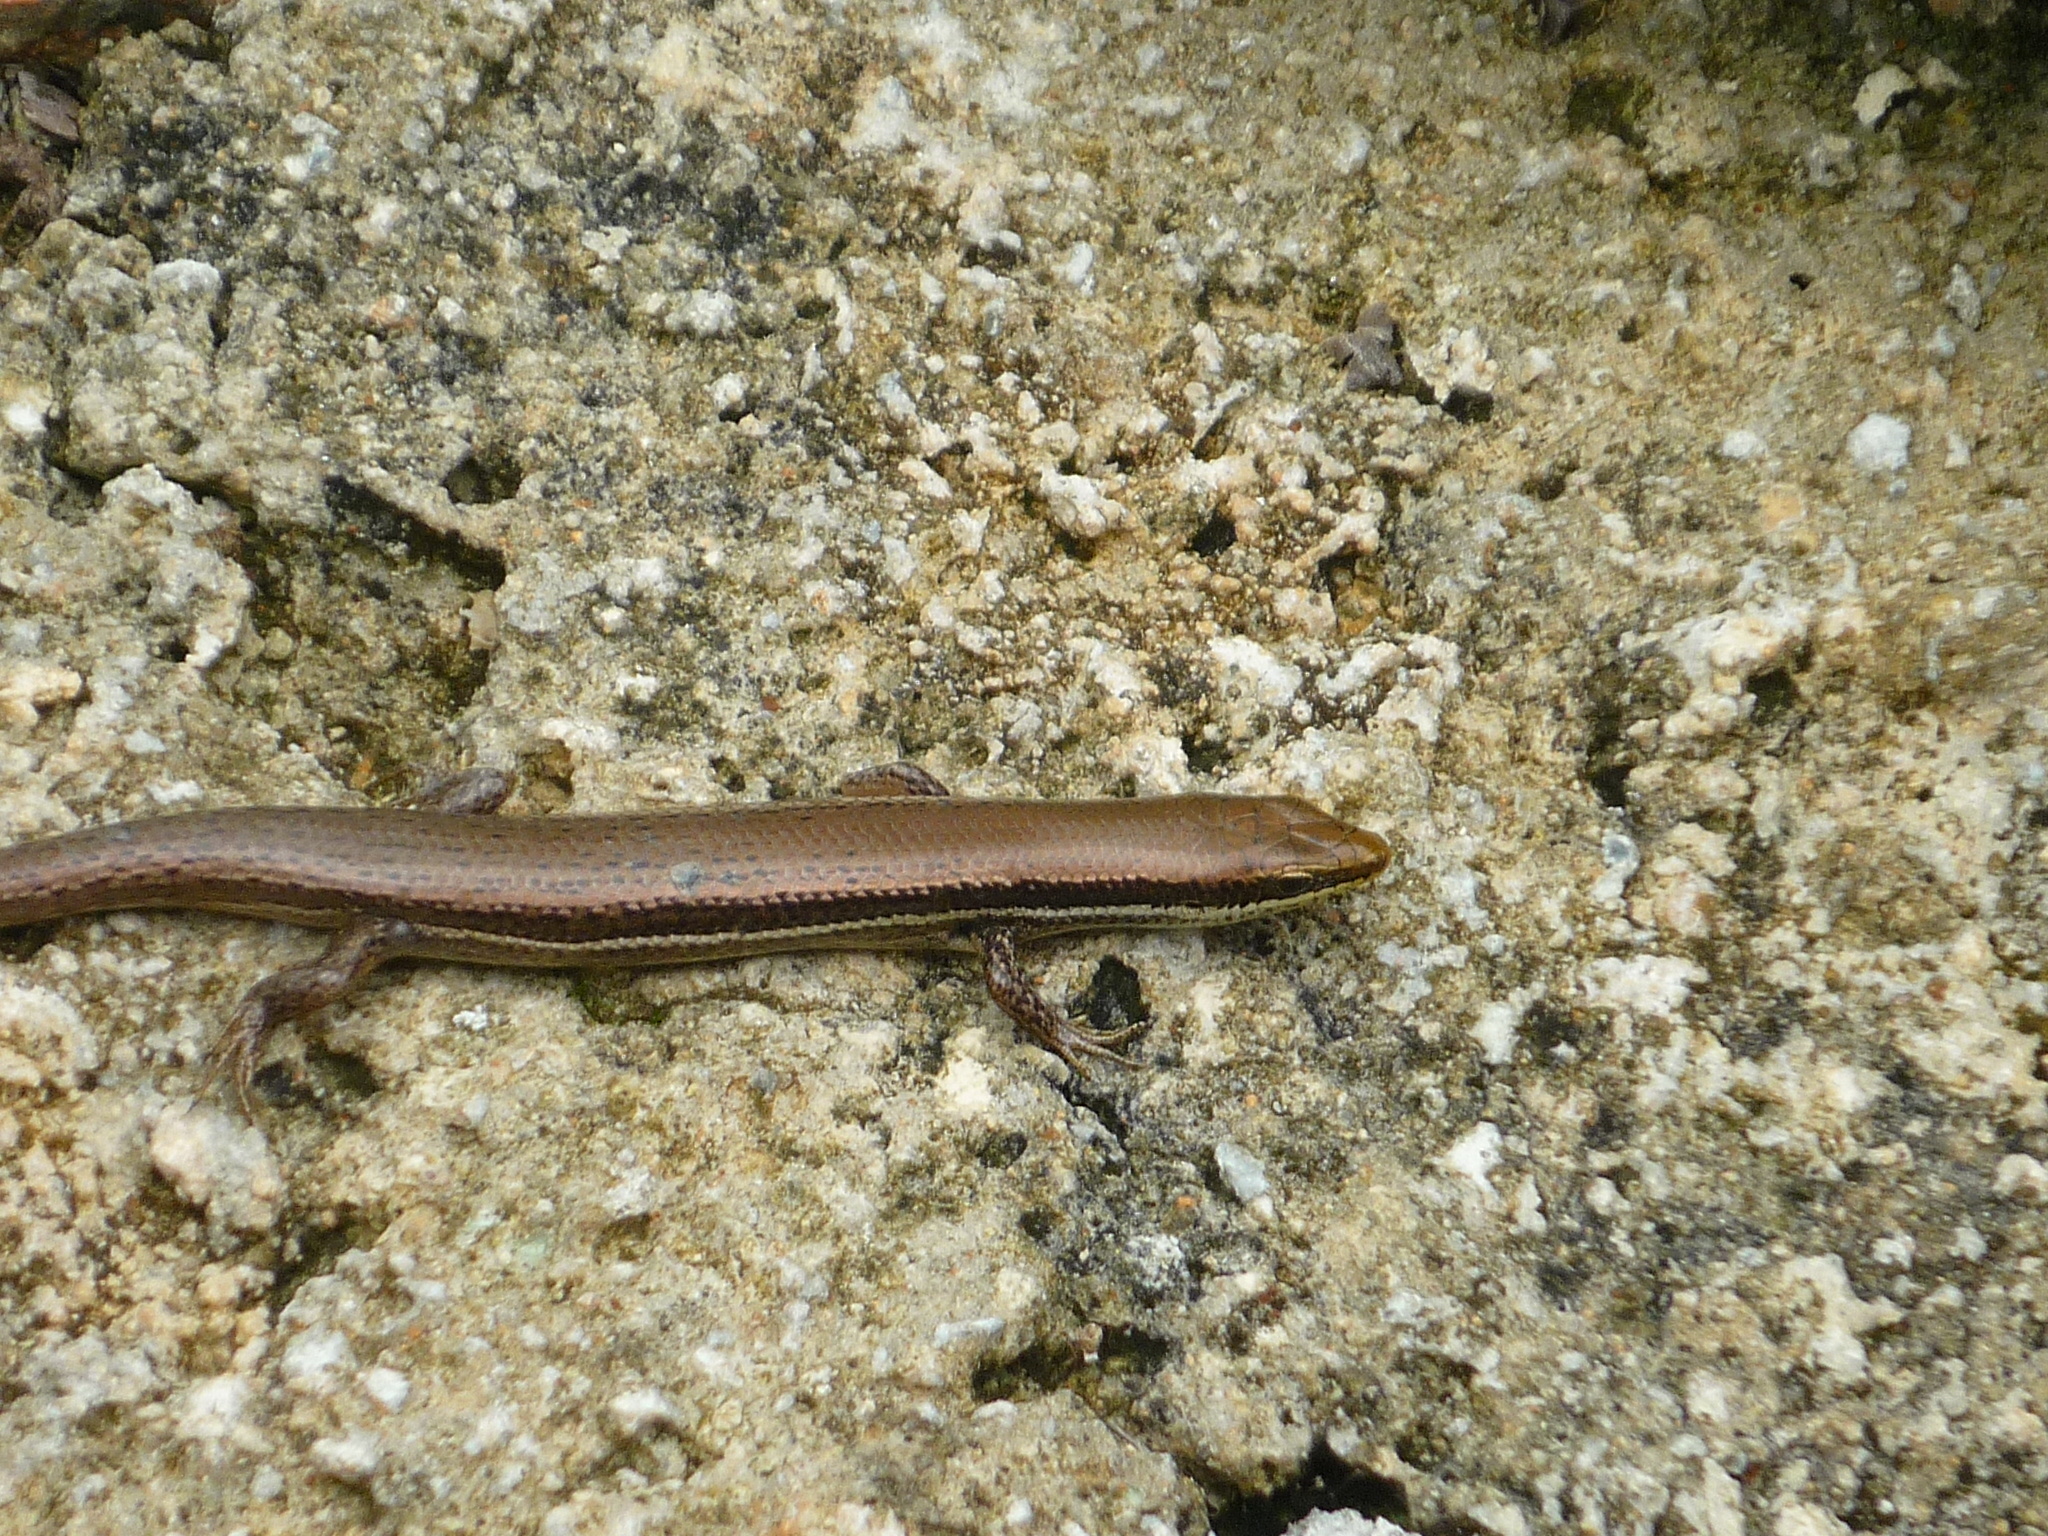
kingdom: Animalia
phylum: Chordata
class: Squamata
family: Scincidae
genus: Marisora
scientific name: Marisora lineola
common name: Mayan skink
